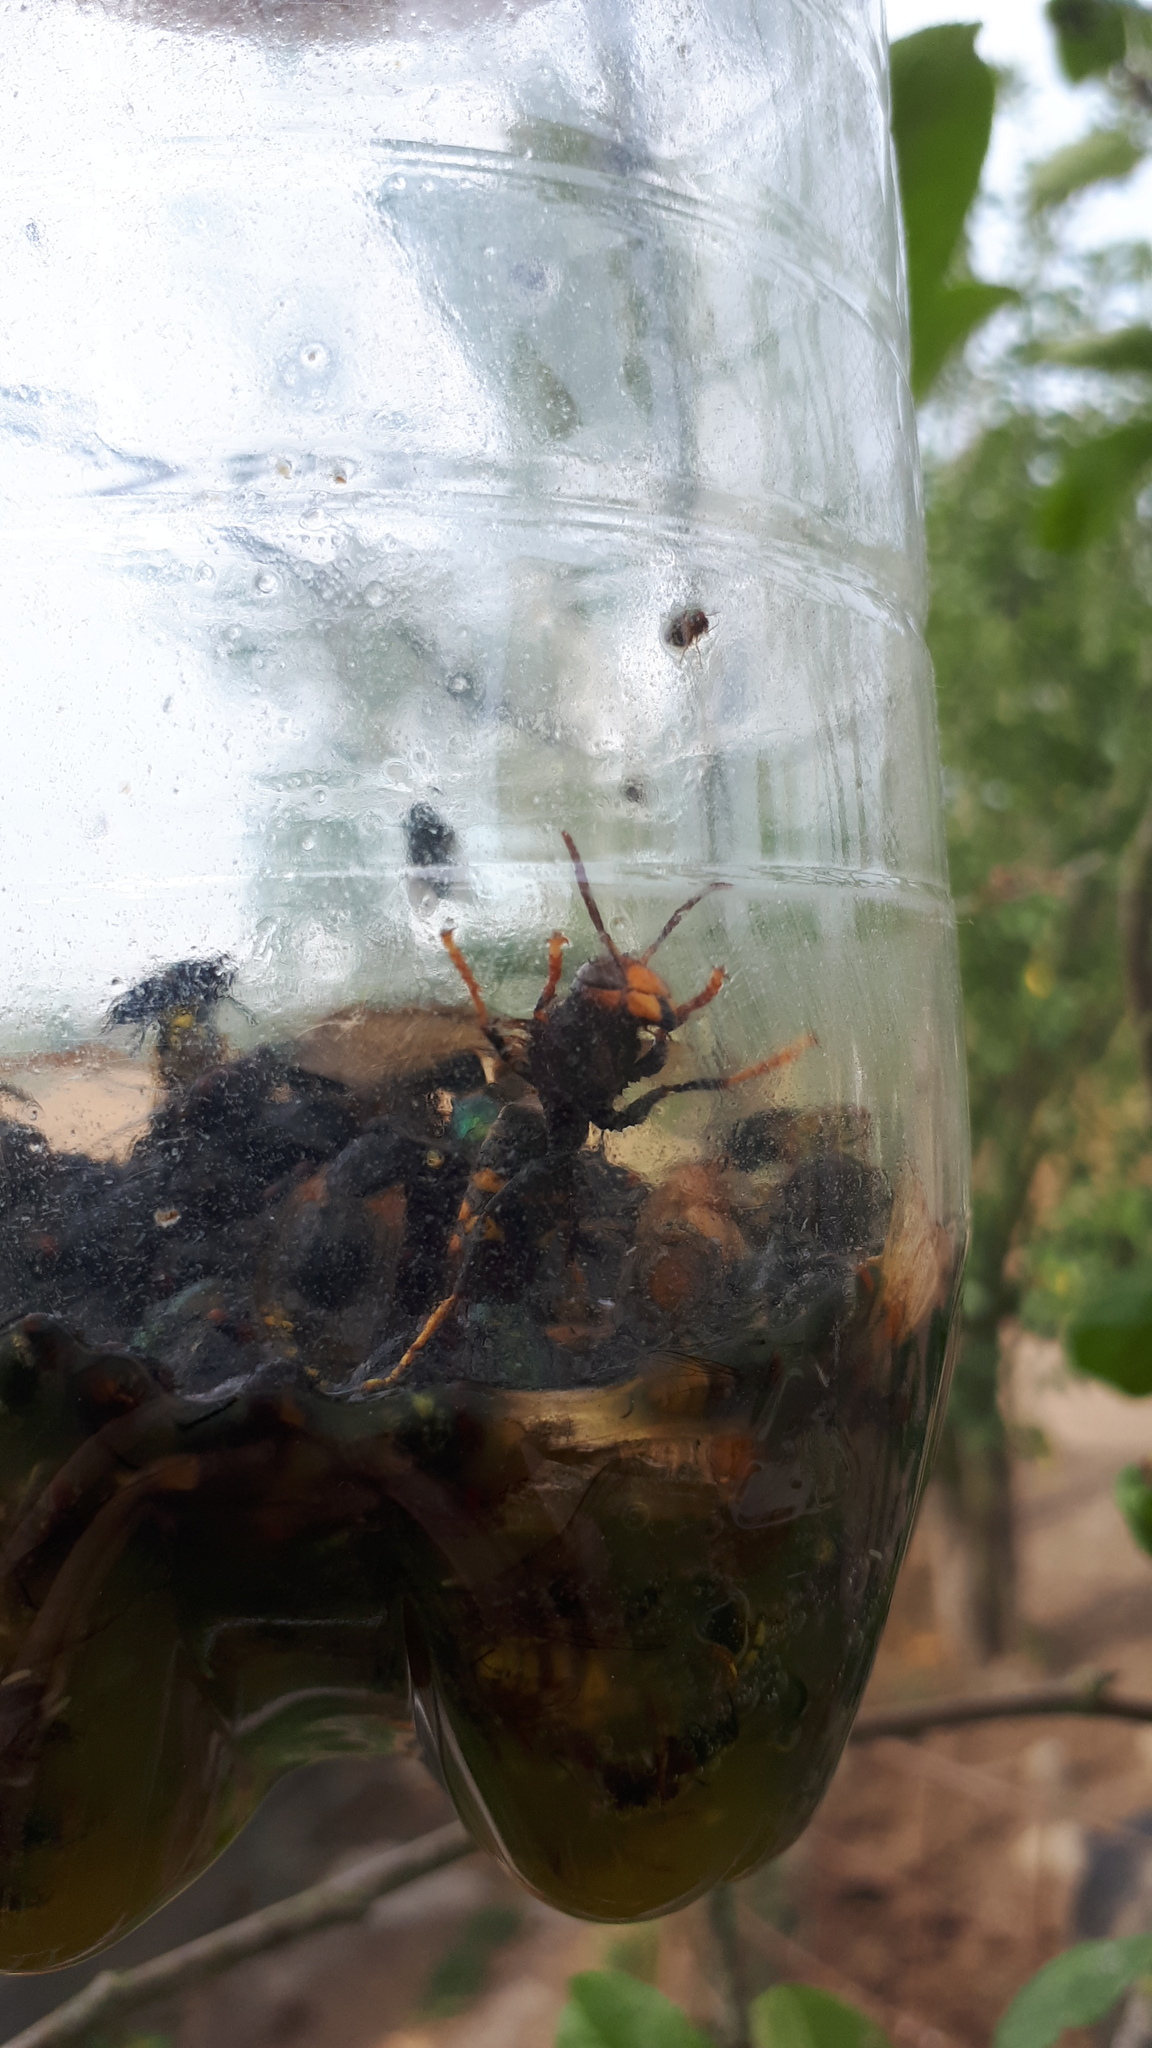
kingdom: Animalia
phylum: Arthropoda
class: Insecta
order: Hymenoptera
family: Vespidae
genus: Vespa
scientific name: Vespa velutina
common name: Asian hornet
